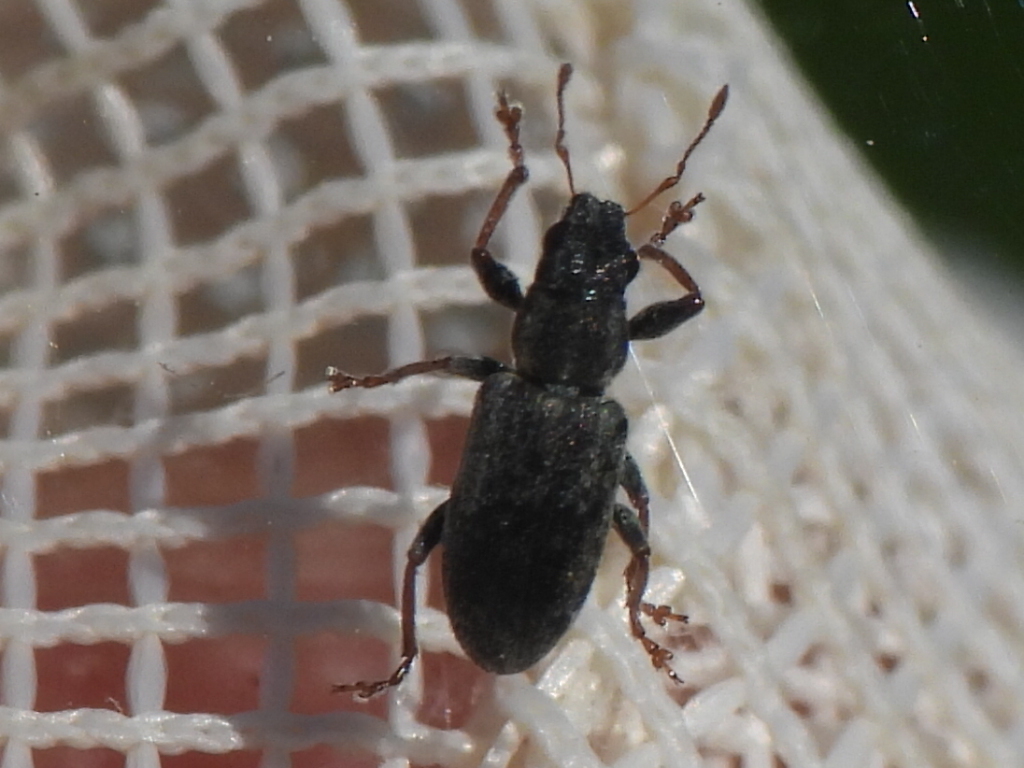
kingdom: Animalia
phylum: Arthropoda
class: Insecta
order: Coleoptera
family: Curculionidae
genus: Sitona
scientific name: Sitona lineatus
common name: Weevil
